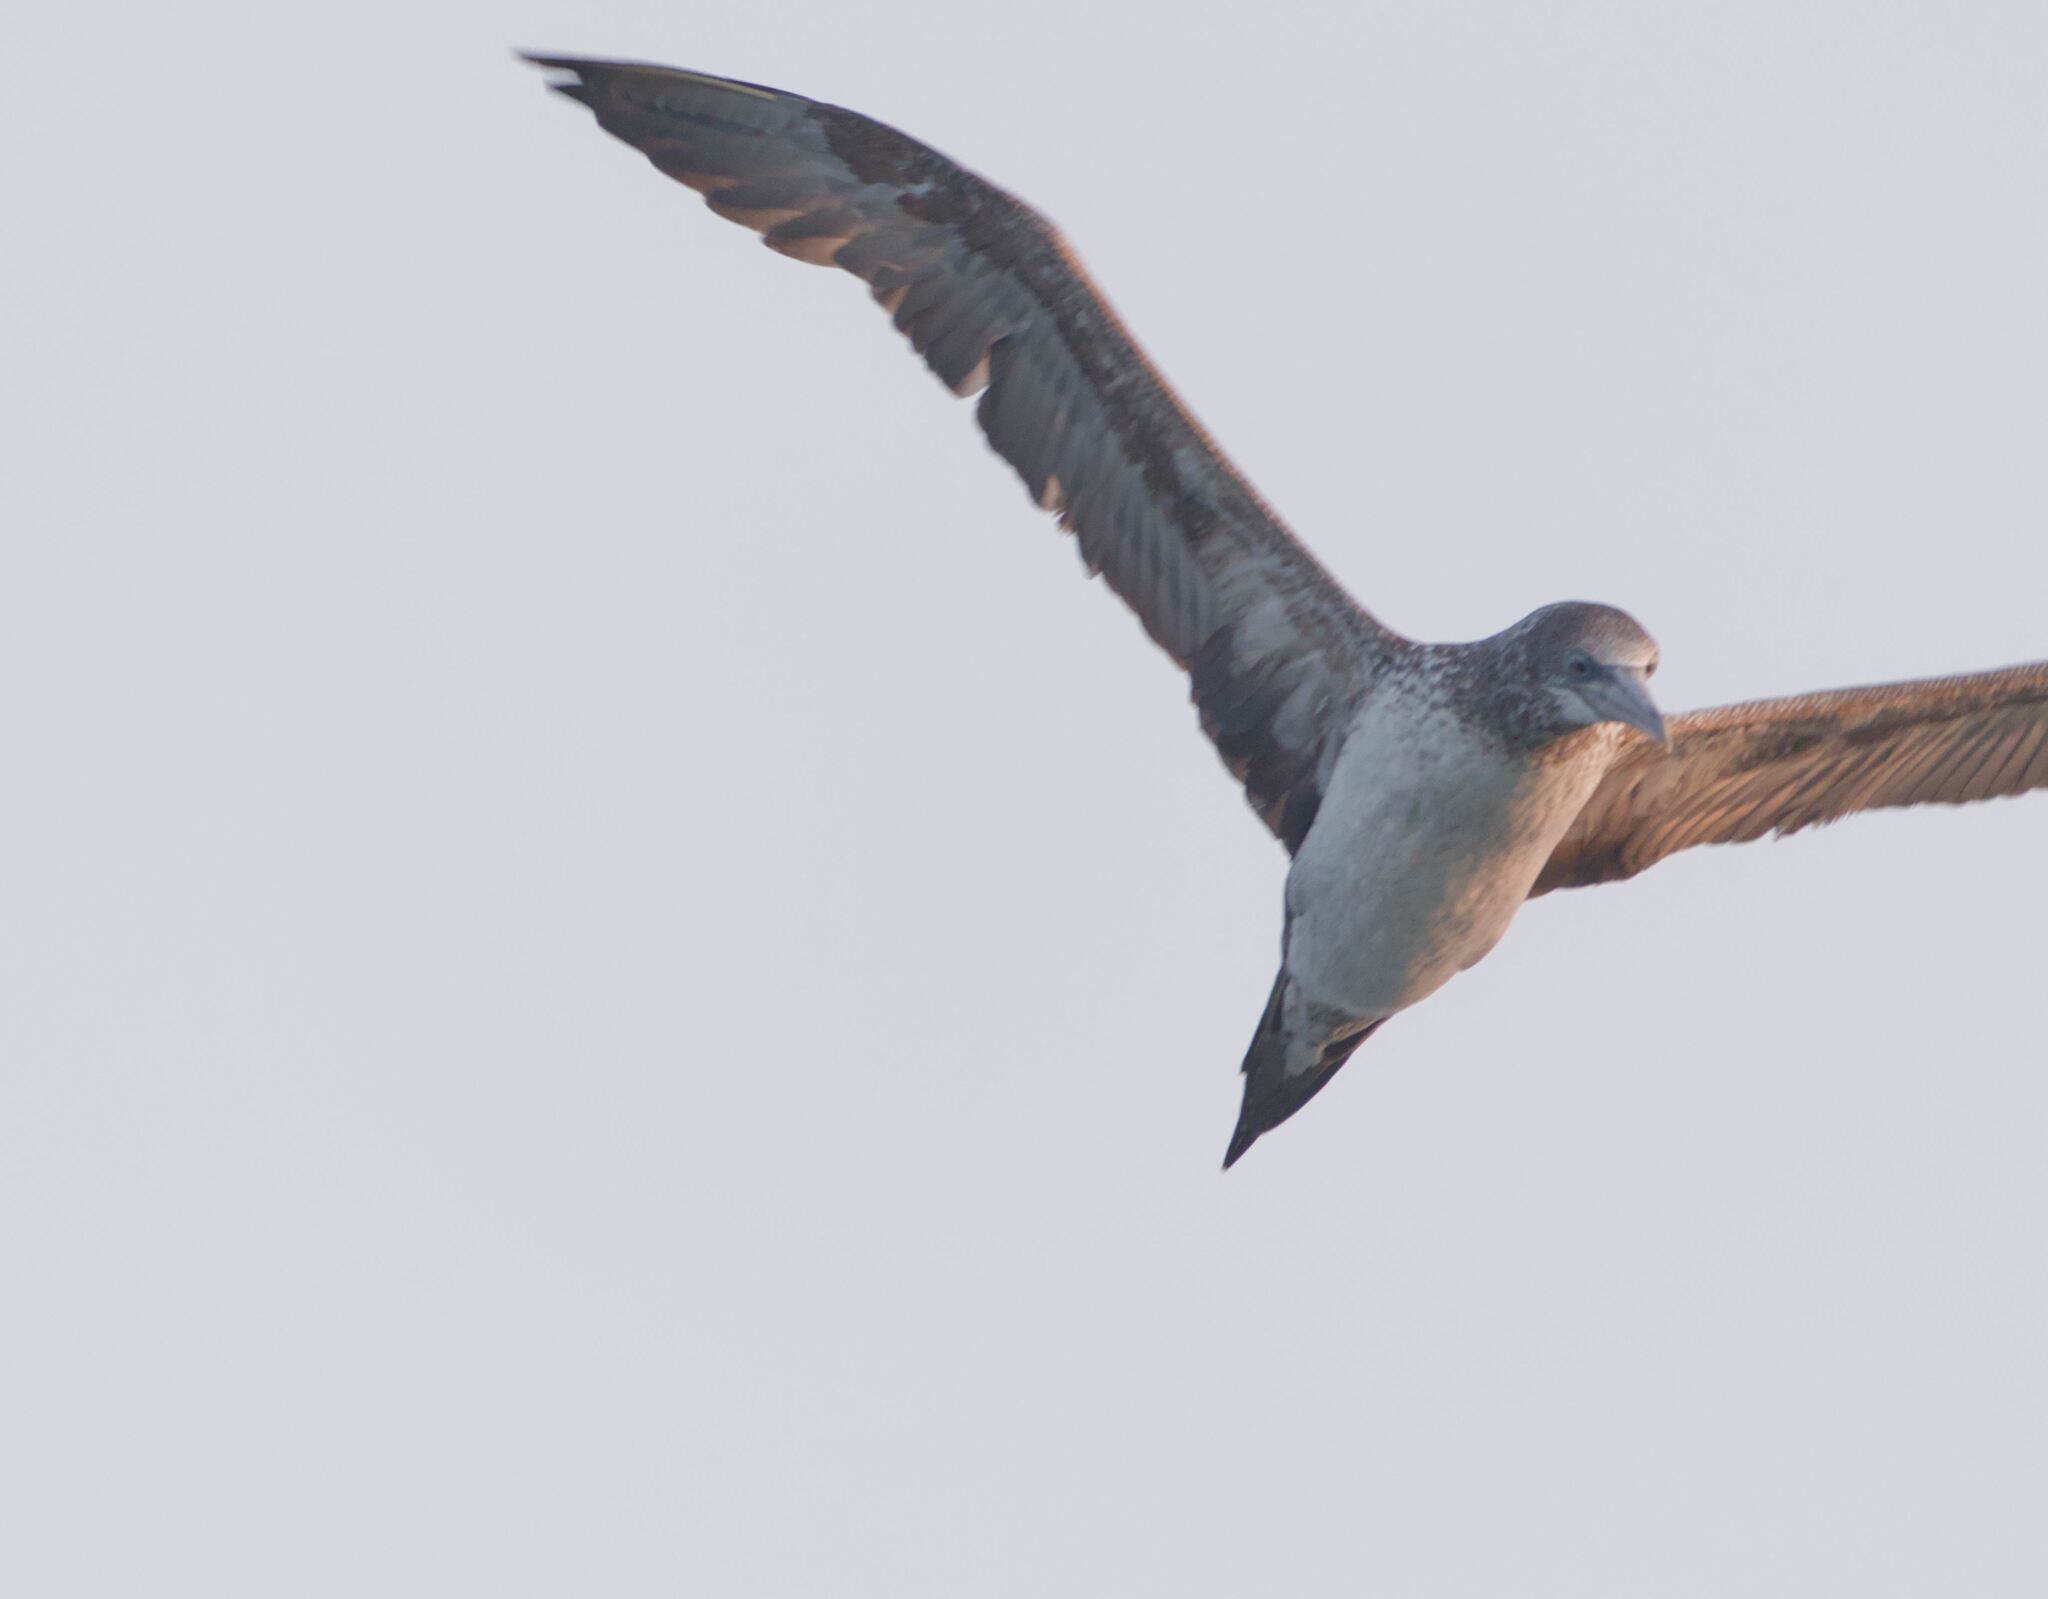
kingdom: Animalia
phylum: Chordata
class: Aves
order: Suliformes
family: Sulidae
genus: Morus
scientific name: Morus bassanus
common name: Northern gannet
